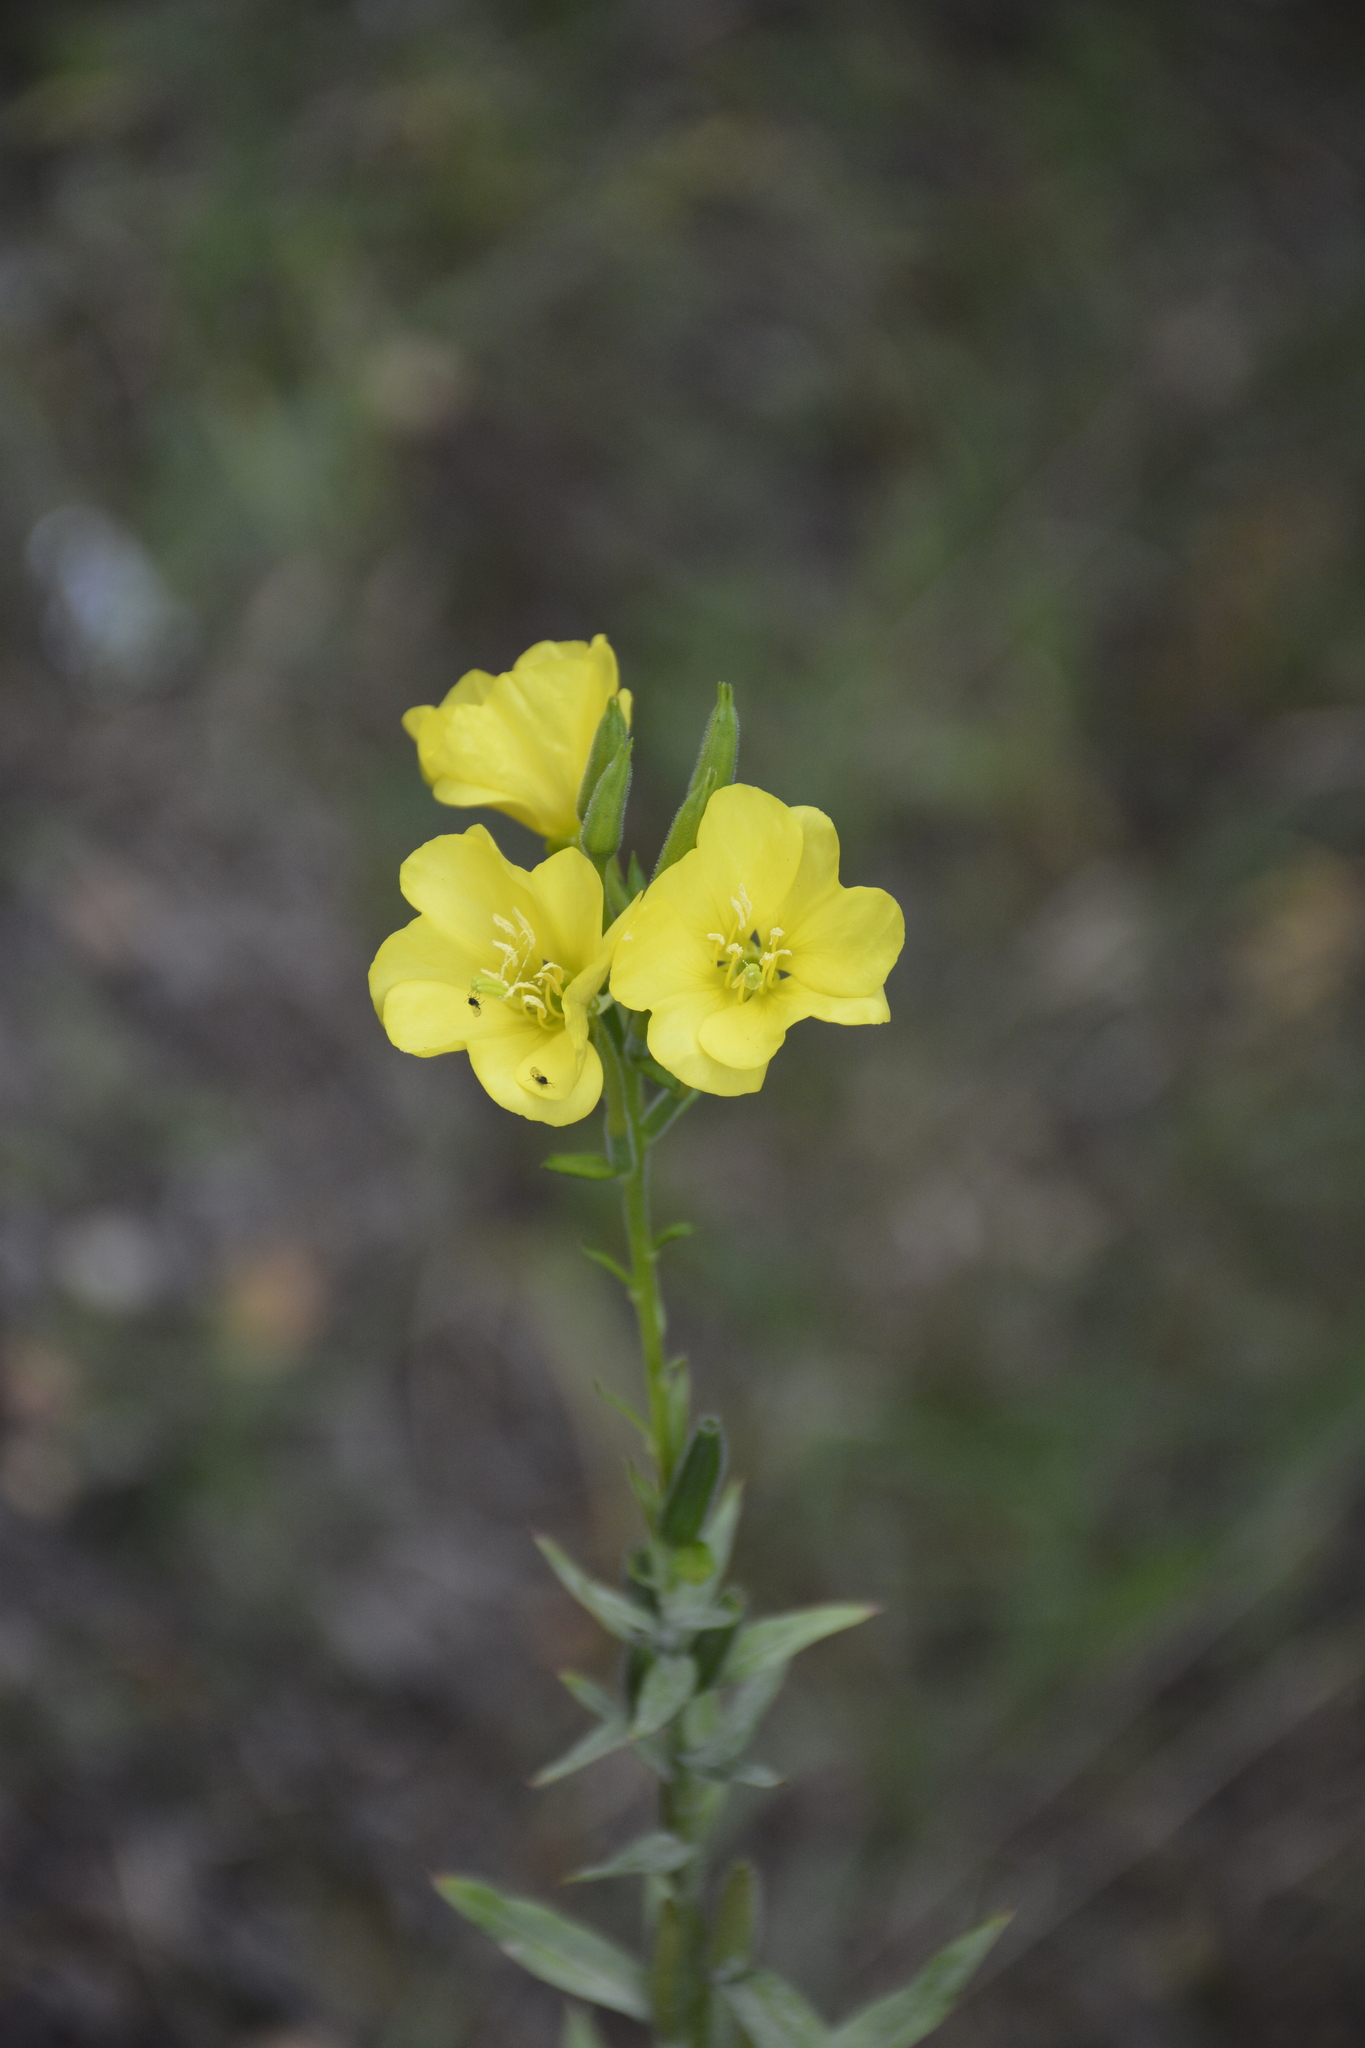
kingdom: Plantae
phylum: Tracheophyta
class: Magnoliopsida
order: Myrtales
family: Onagraceae
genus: Oenothera
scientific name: Oenothera biennis
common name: Common evening-primrose
